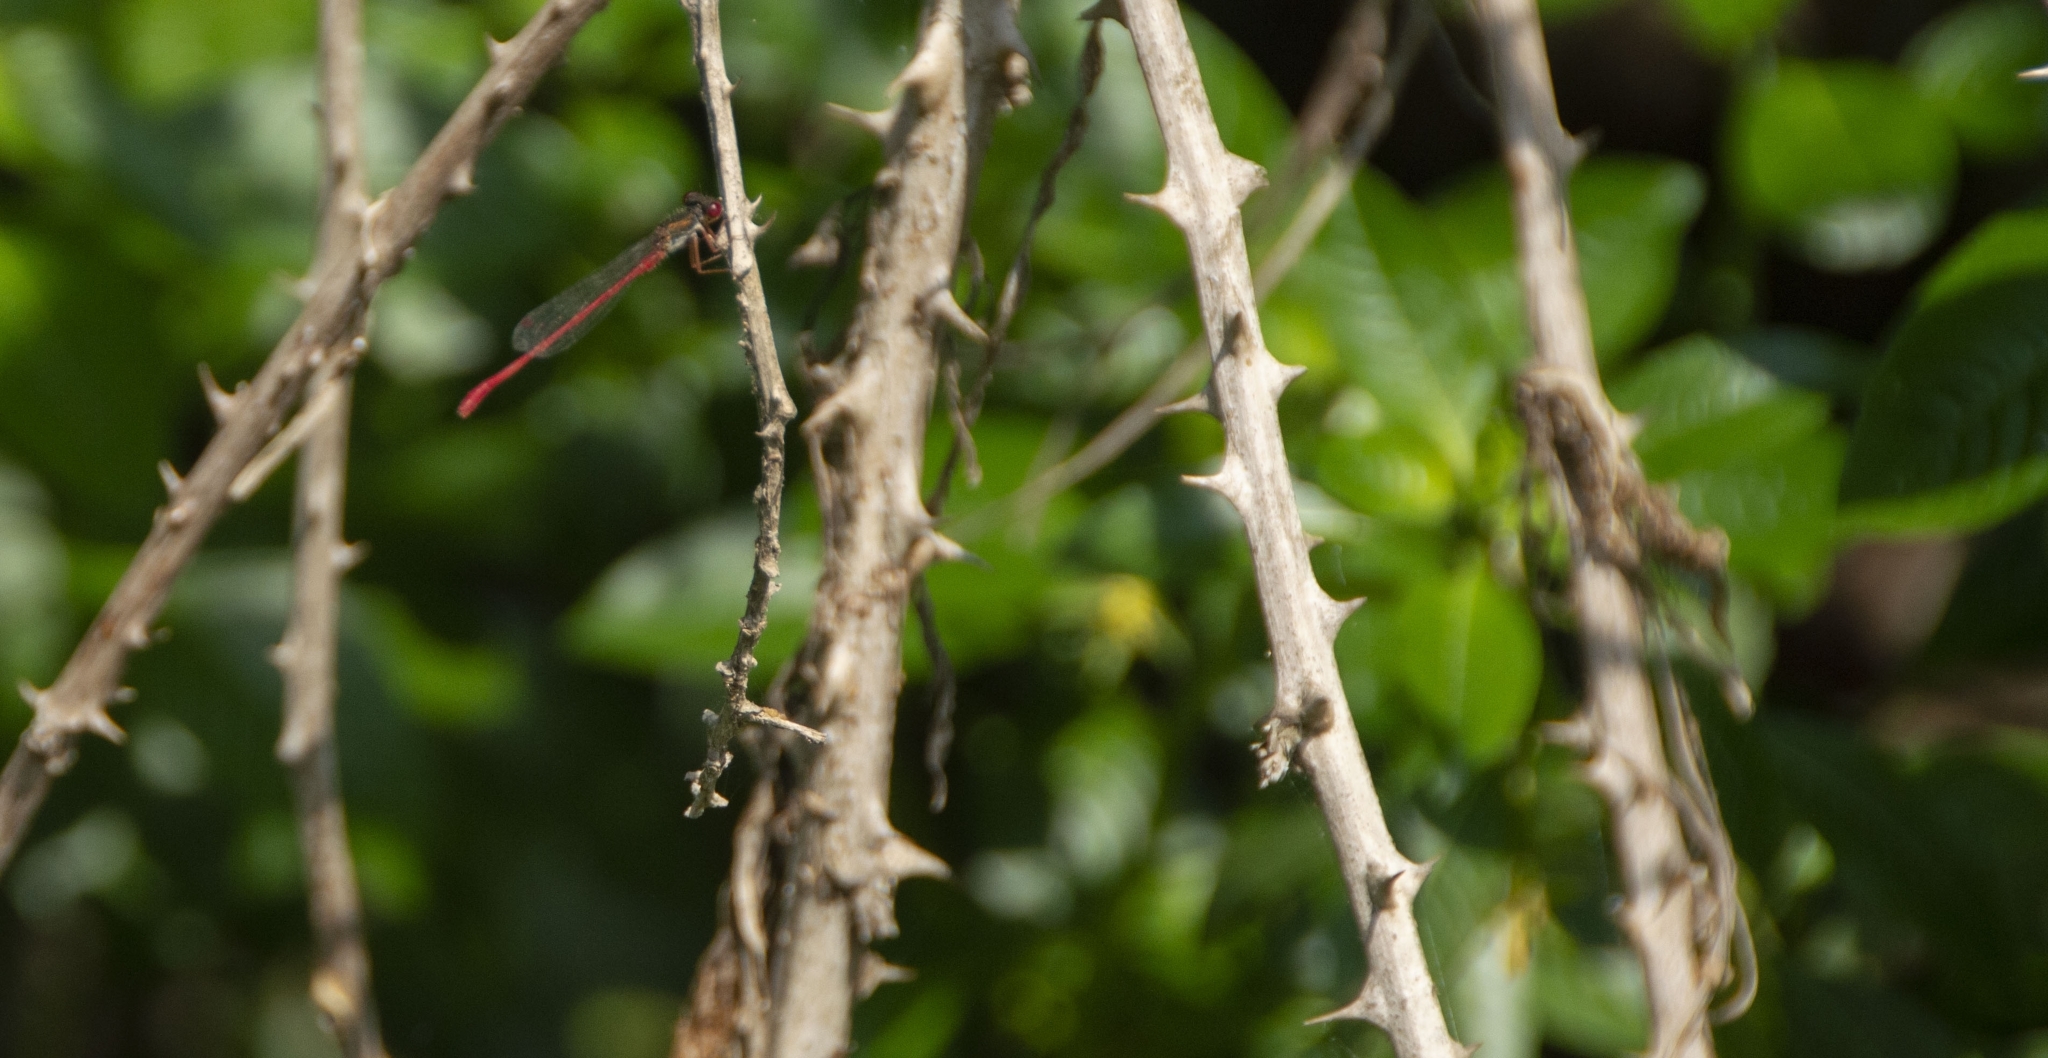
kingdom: Animalia
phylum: Arthropoda
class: Insecta
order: Odonata
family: Coenagrionidae
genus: Ceriagrion
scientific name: Ceriagrion tenellum
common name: Small red damselfly
